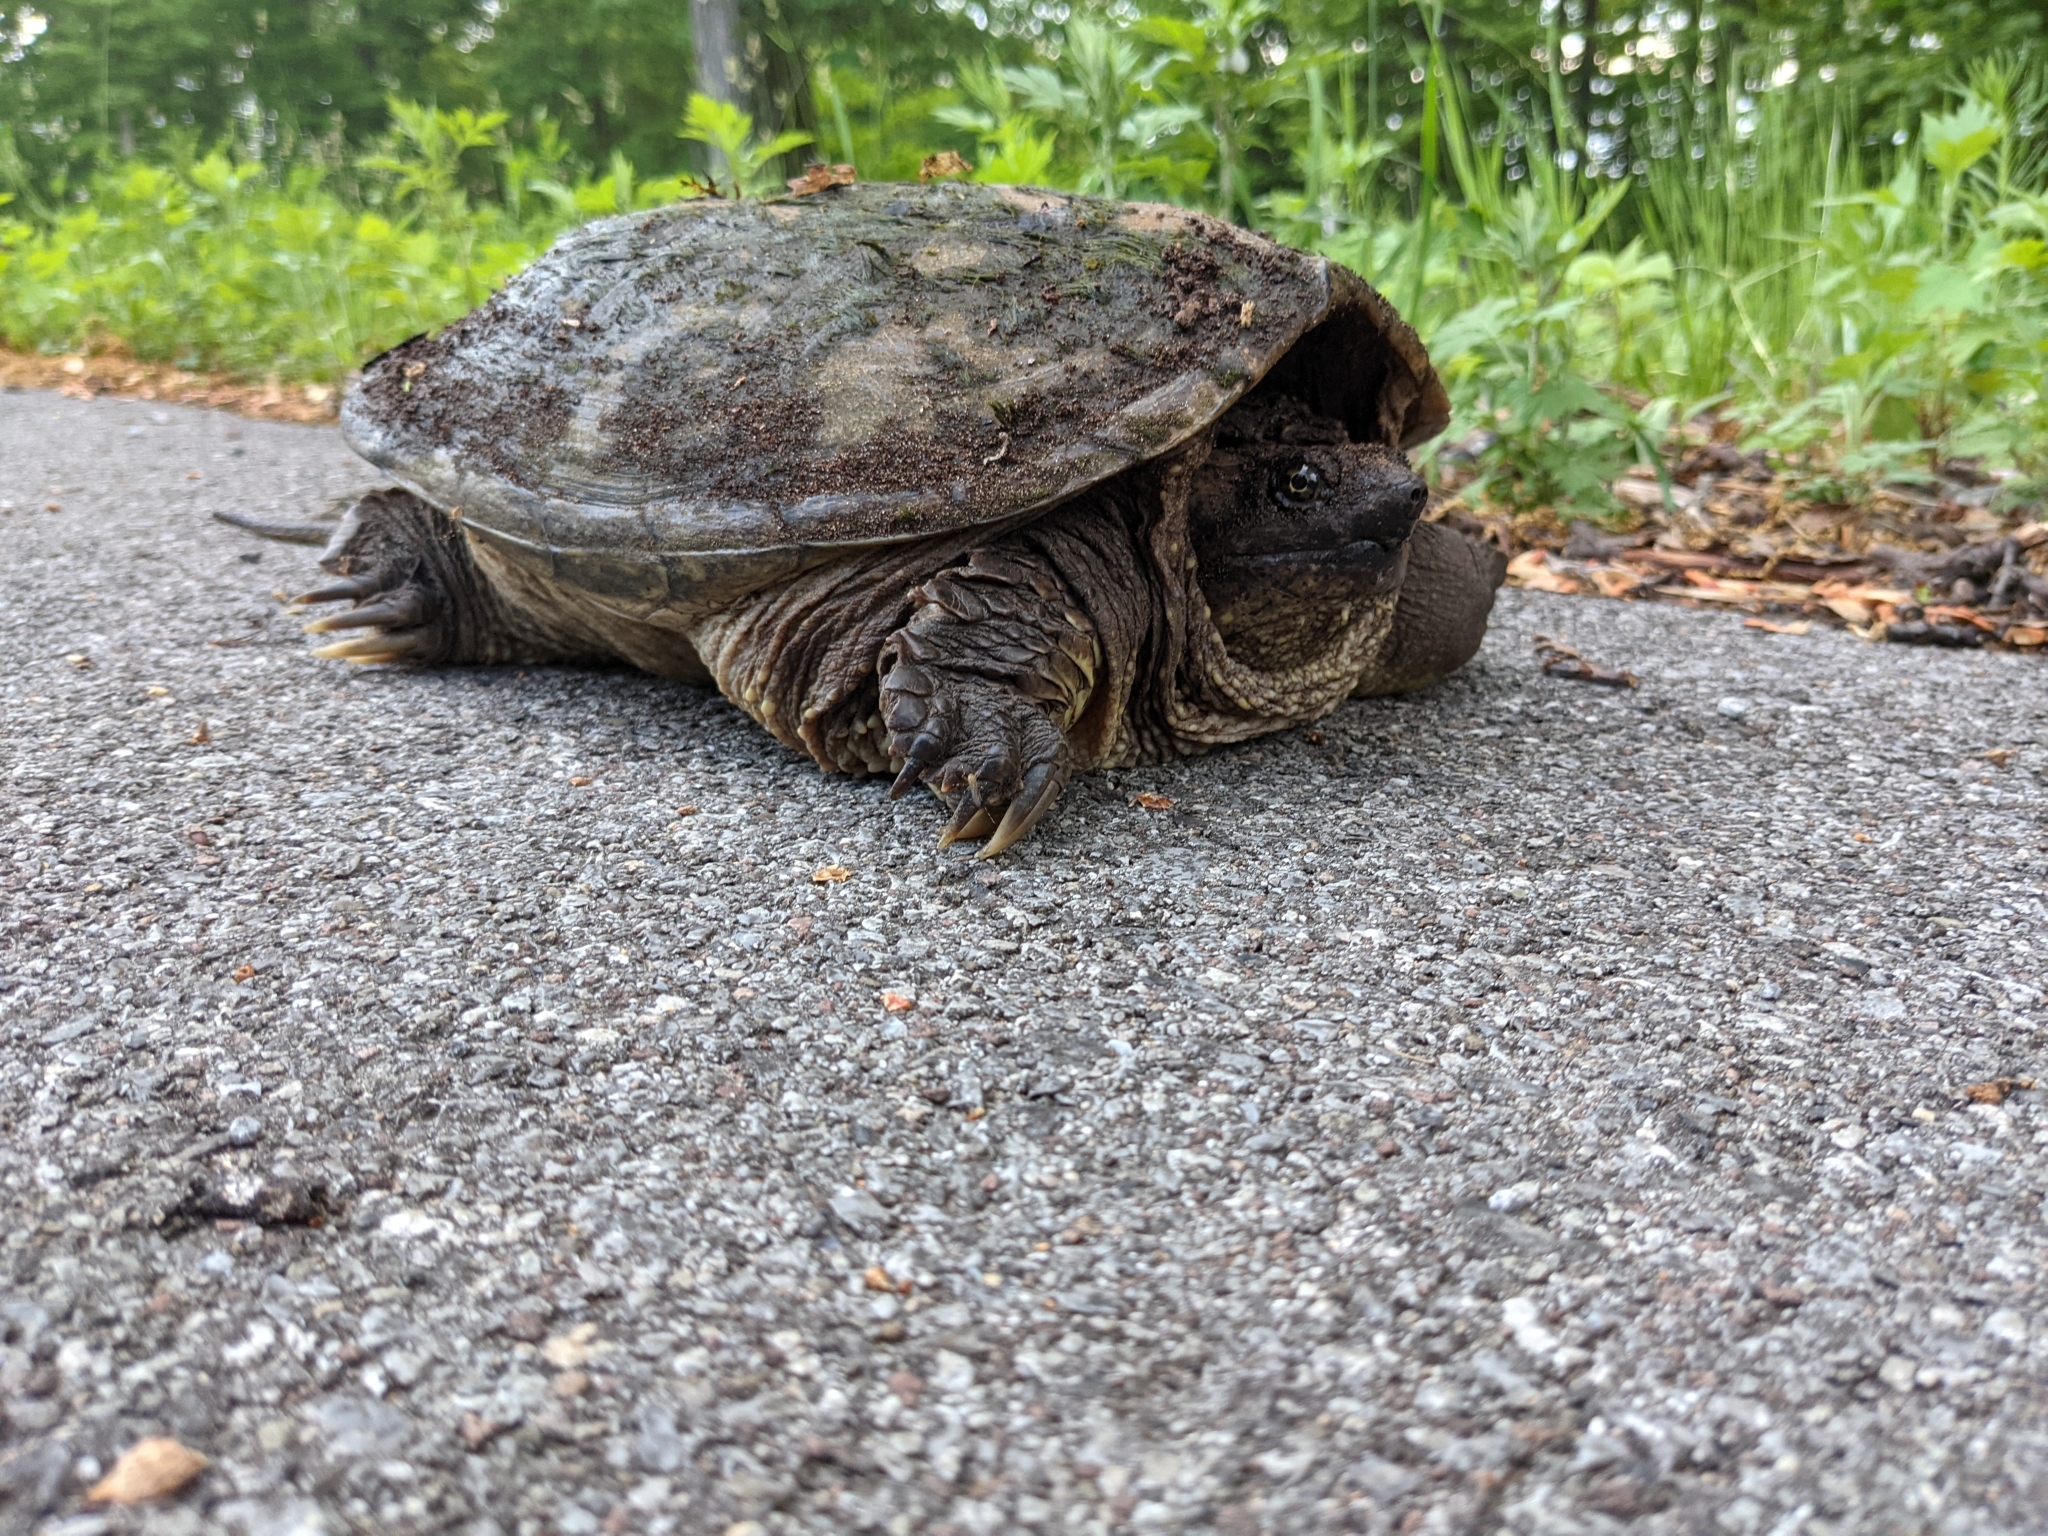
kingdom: Animalia
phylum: Chordata
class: Testudines
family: Chelydridae
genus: Chelydra
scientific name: Chelydra serpentina
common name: Common snapping turtle
